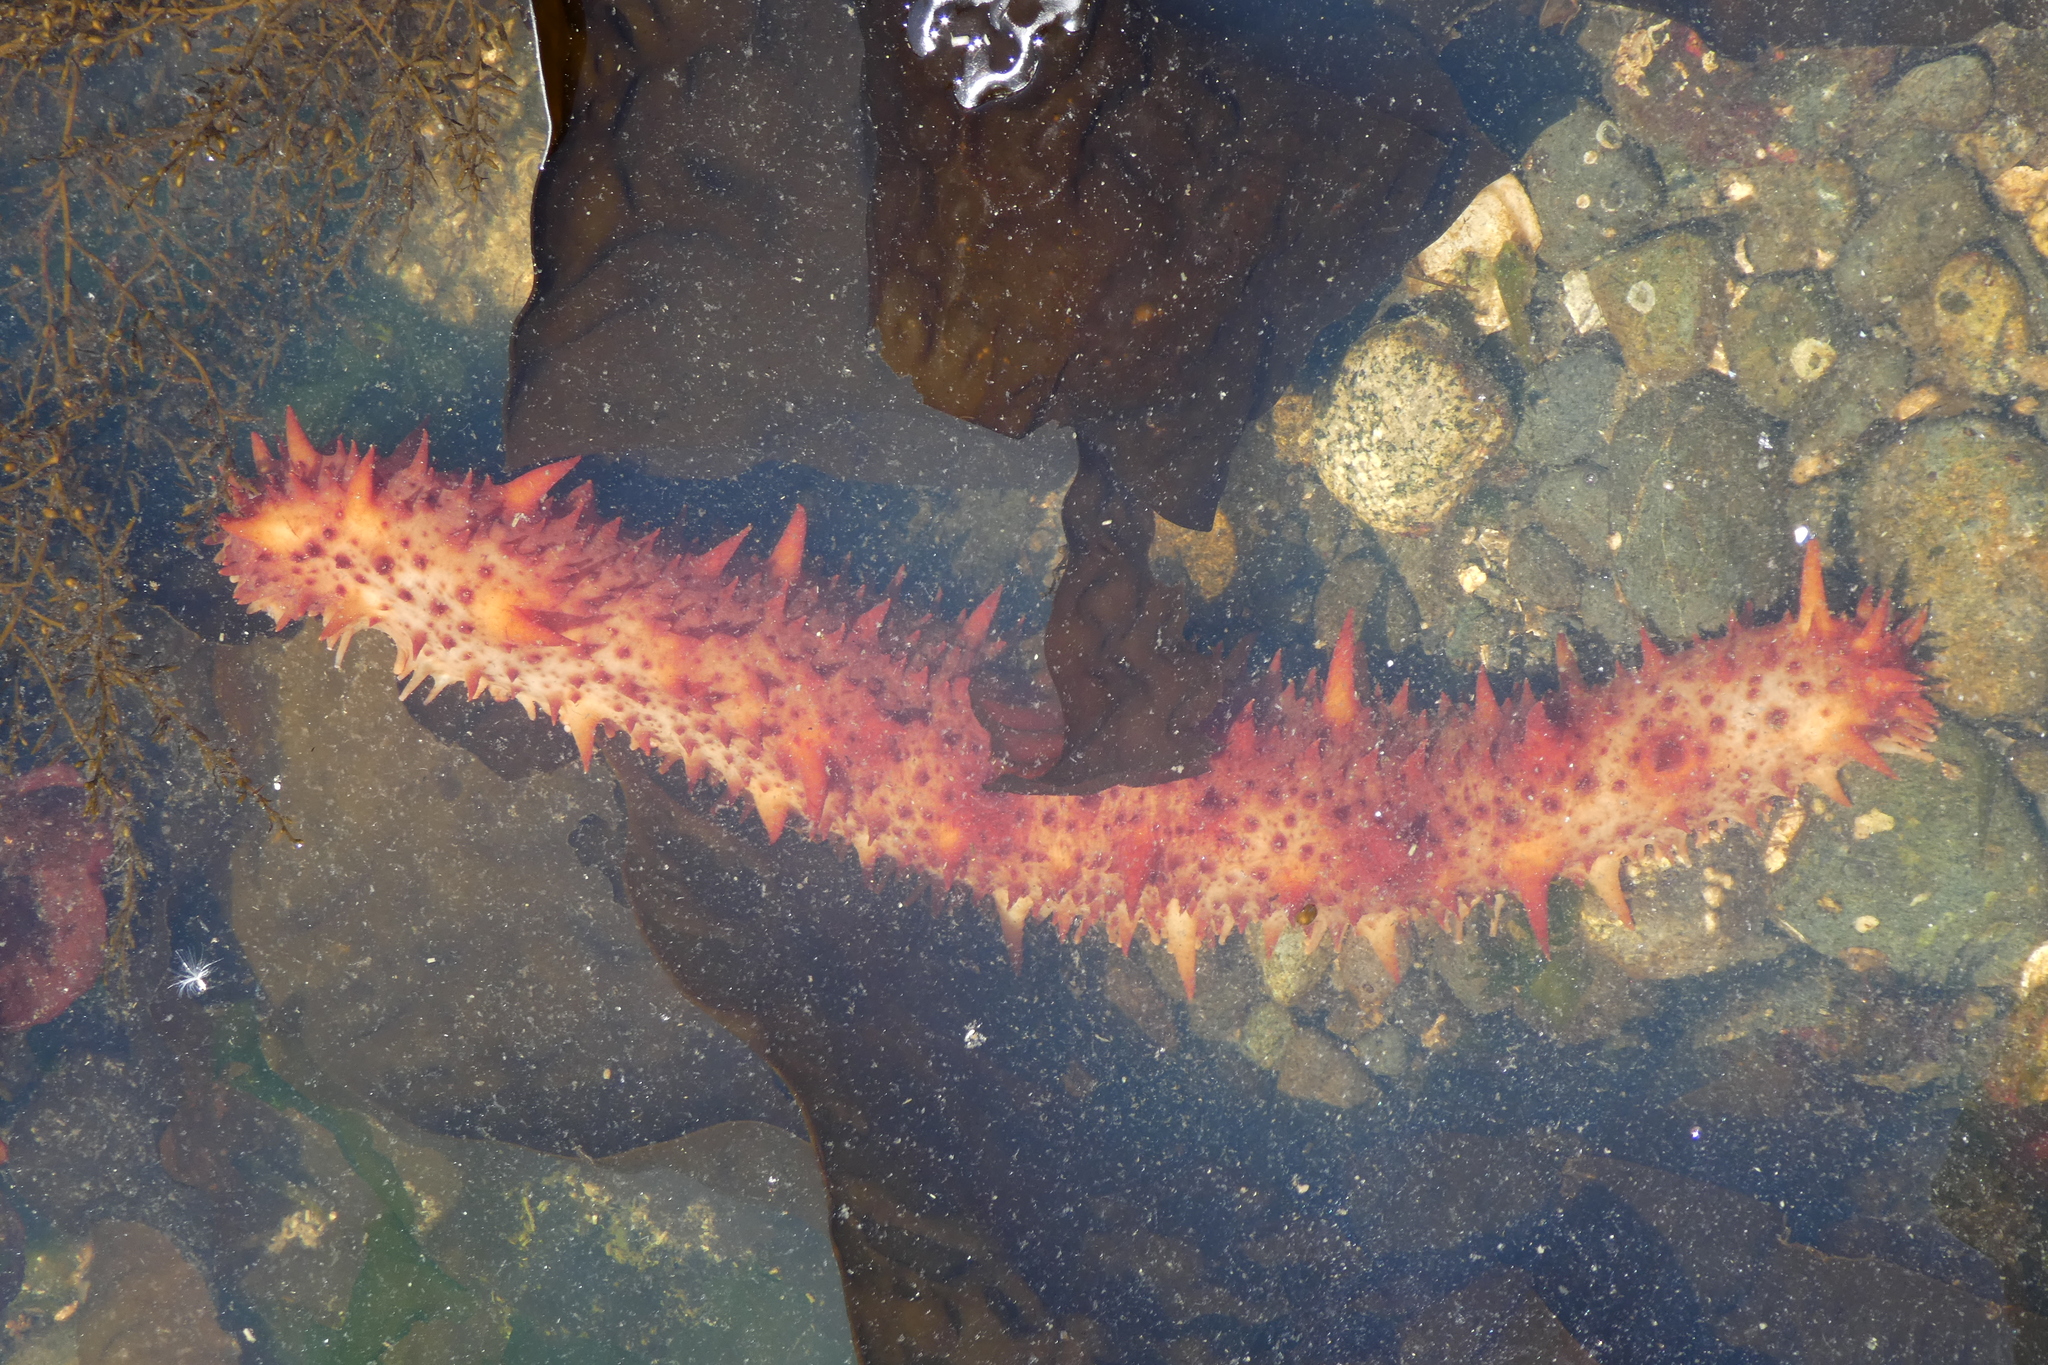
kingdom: Animalia
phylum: Echinodermata
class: Holothuroidea
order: Synallactida
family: Stichopodidae
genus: Apostichopus
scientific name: Apostichopus californicus
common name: California sea cucumber
